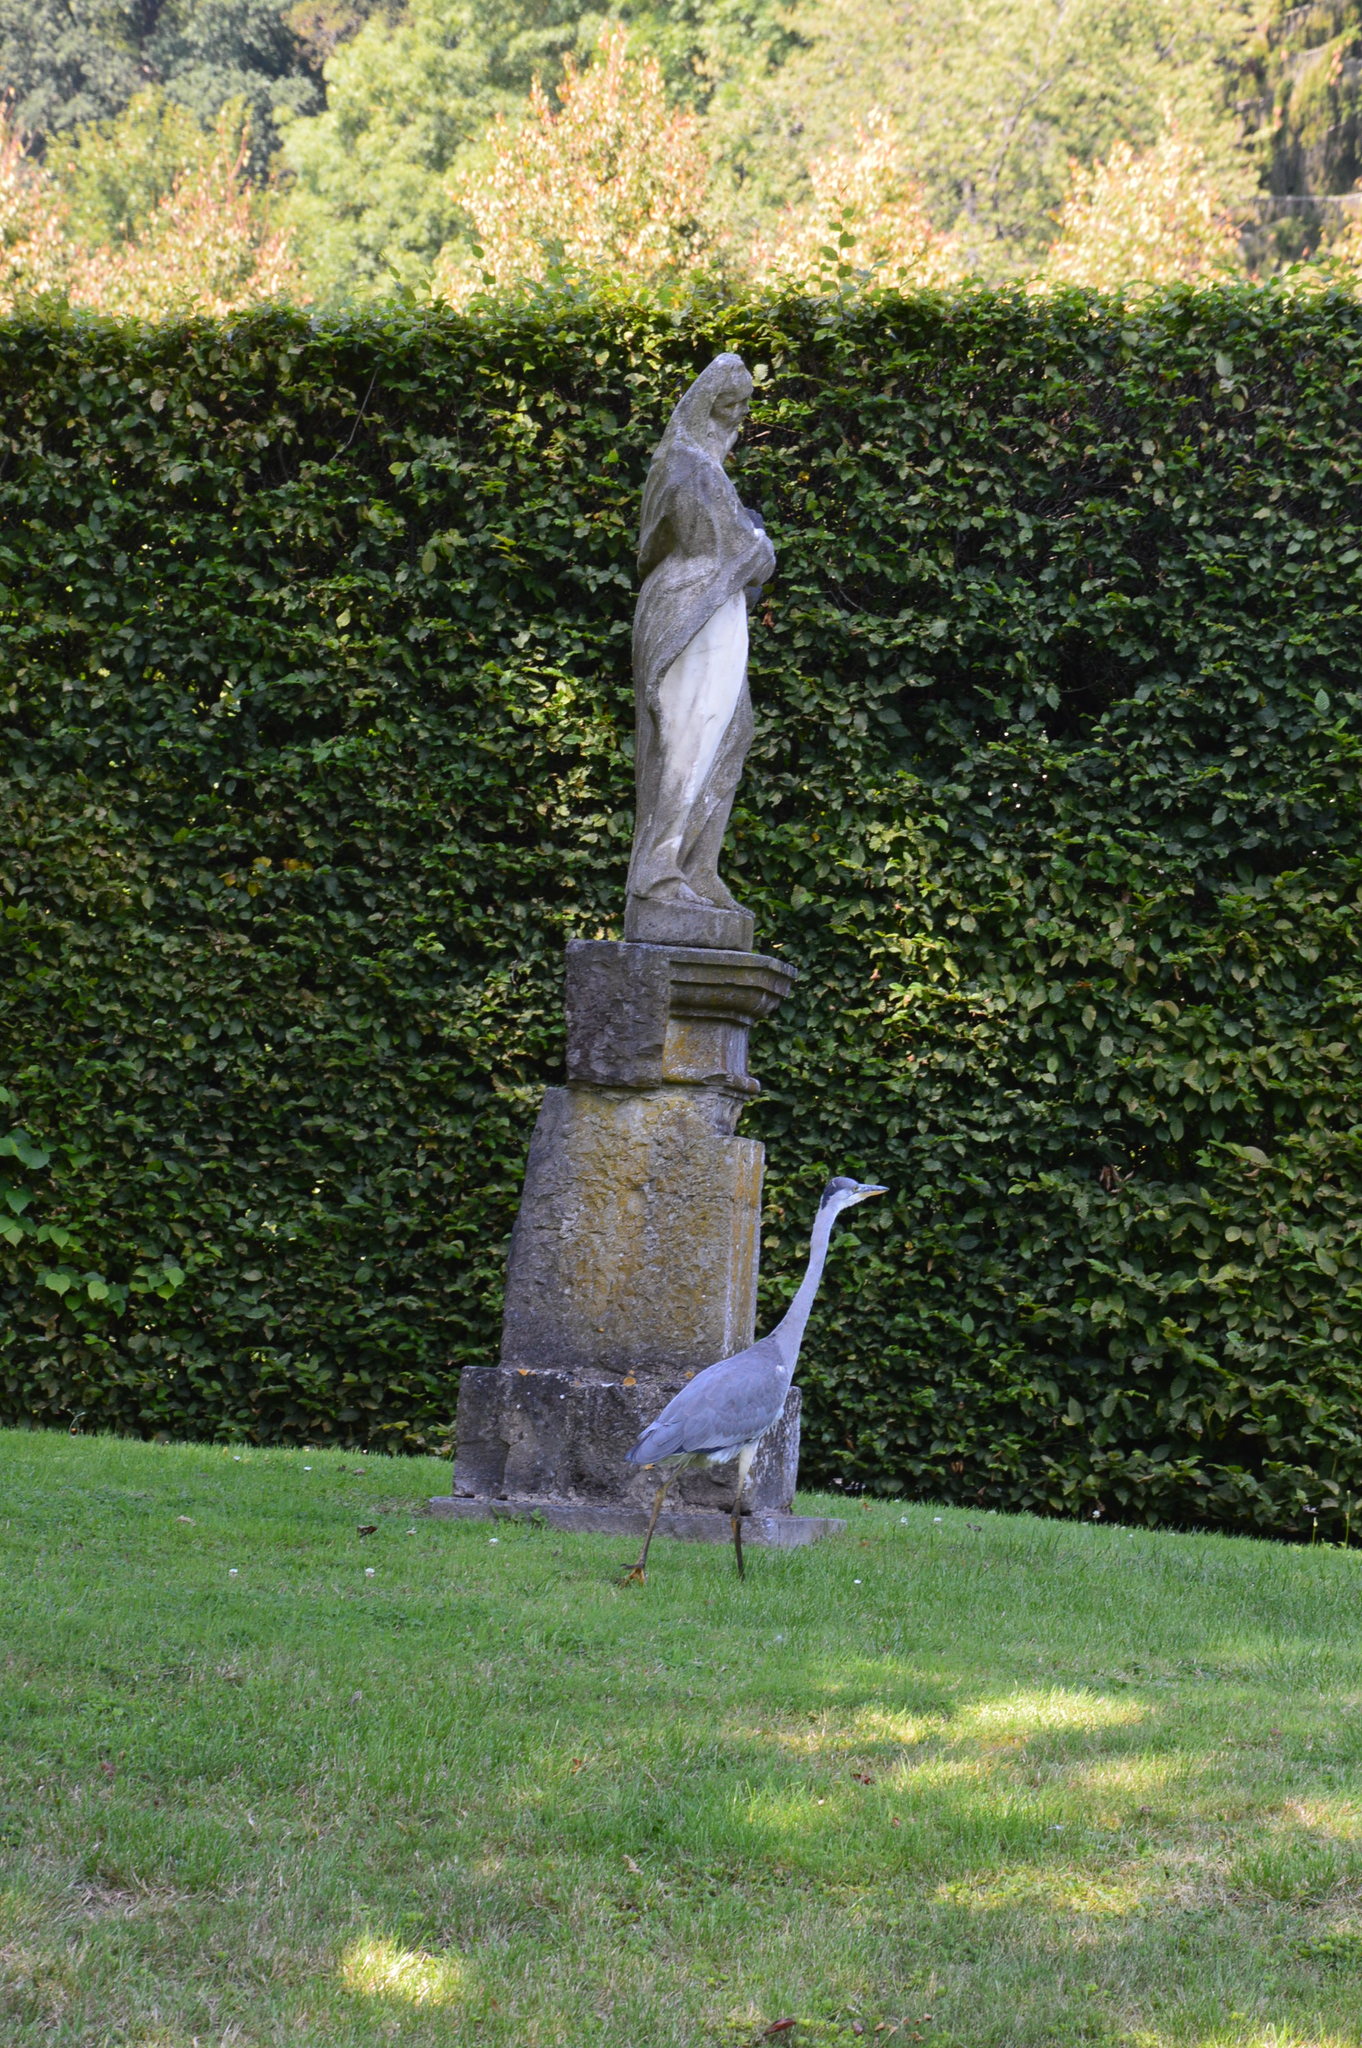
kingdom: Animalia
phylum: Chordata
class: Aves
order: Pelecaniformes
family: Ardeidae
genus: Ardea
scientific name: Ardea cinerea
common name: Grey heron
